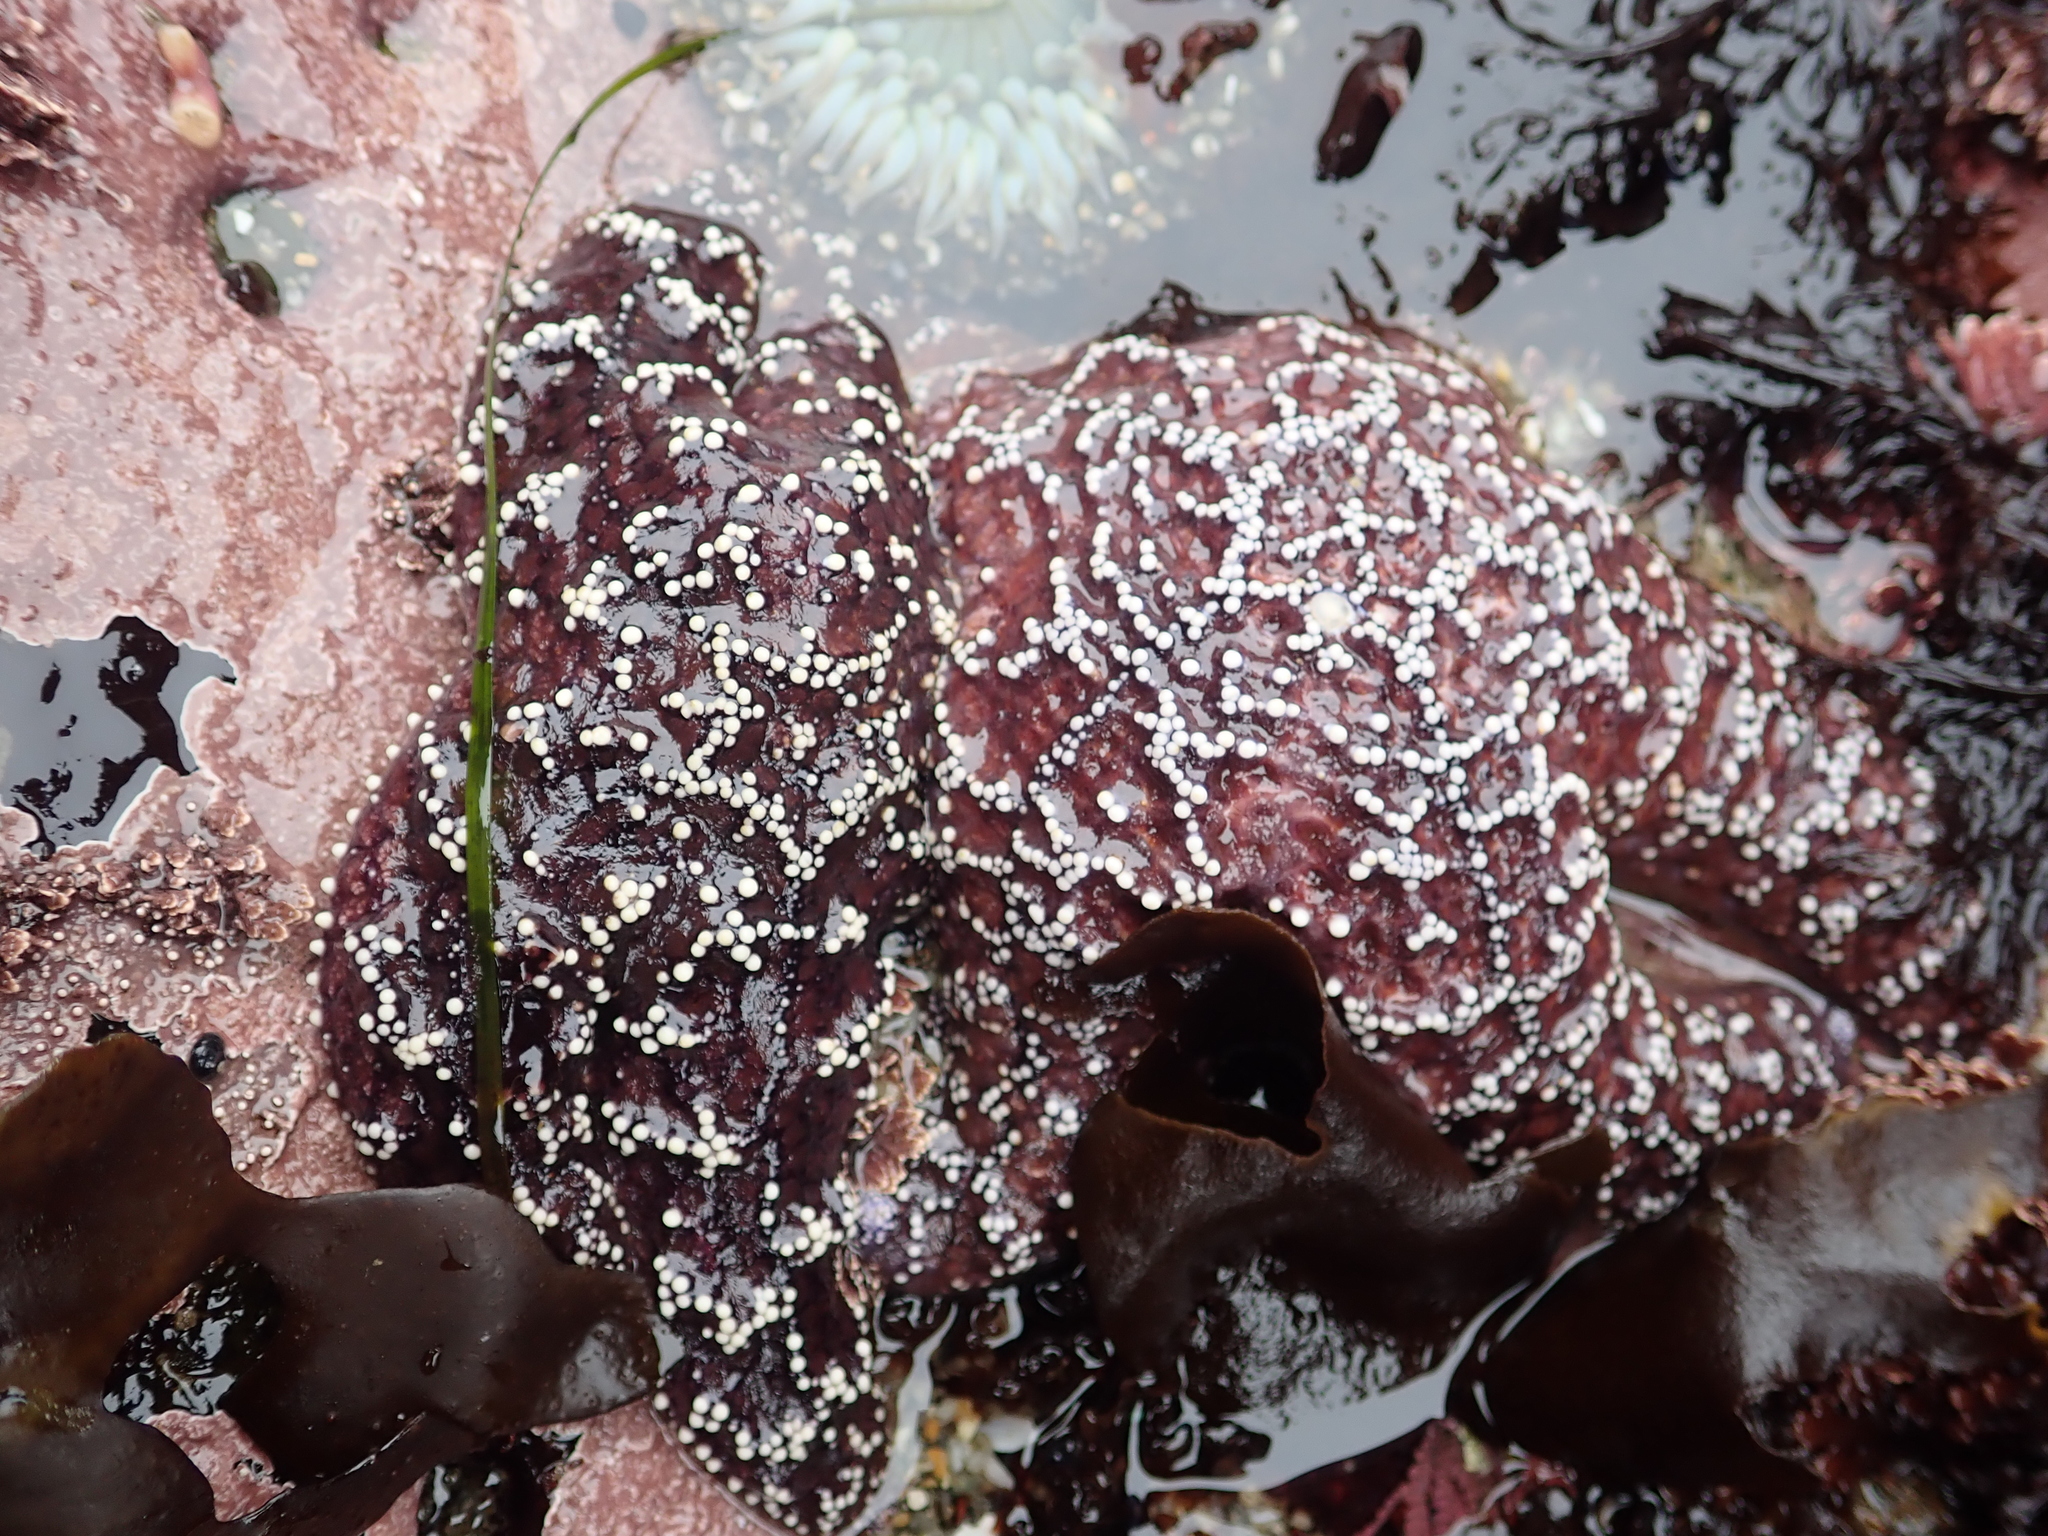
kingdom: Animalia
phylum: Echinodermata
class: Asteroidea
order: Forcipulatida
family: Asteriidae
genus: Pisaster
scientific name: Pisaster ochraceus
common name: Ochre stars
